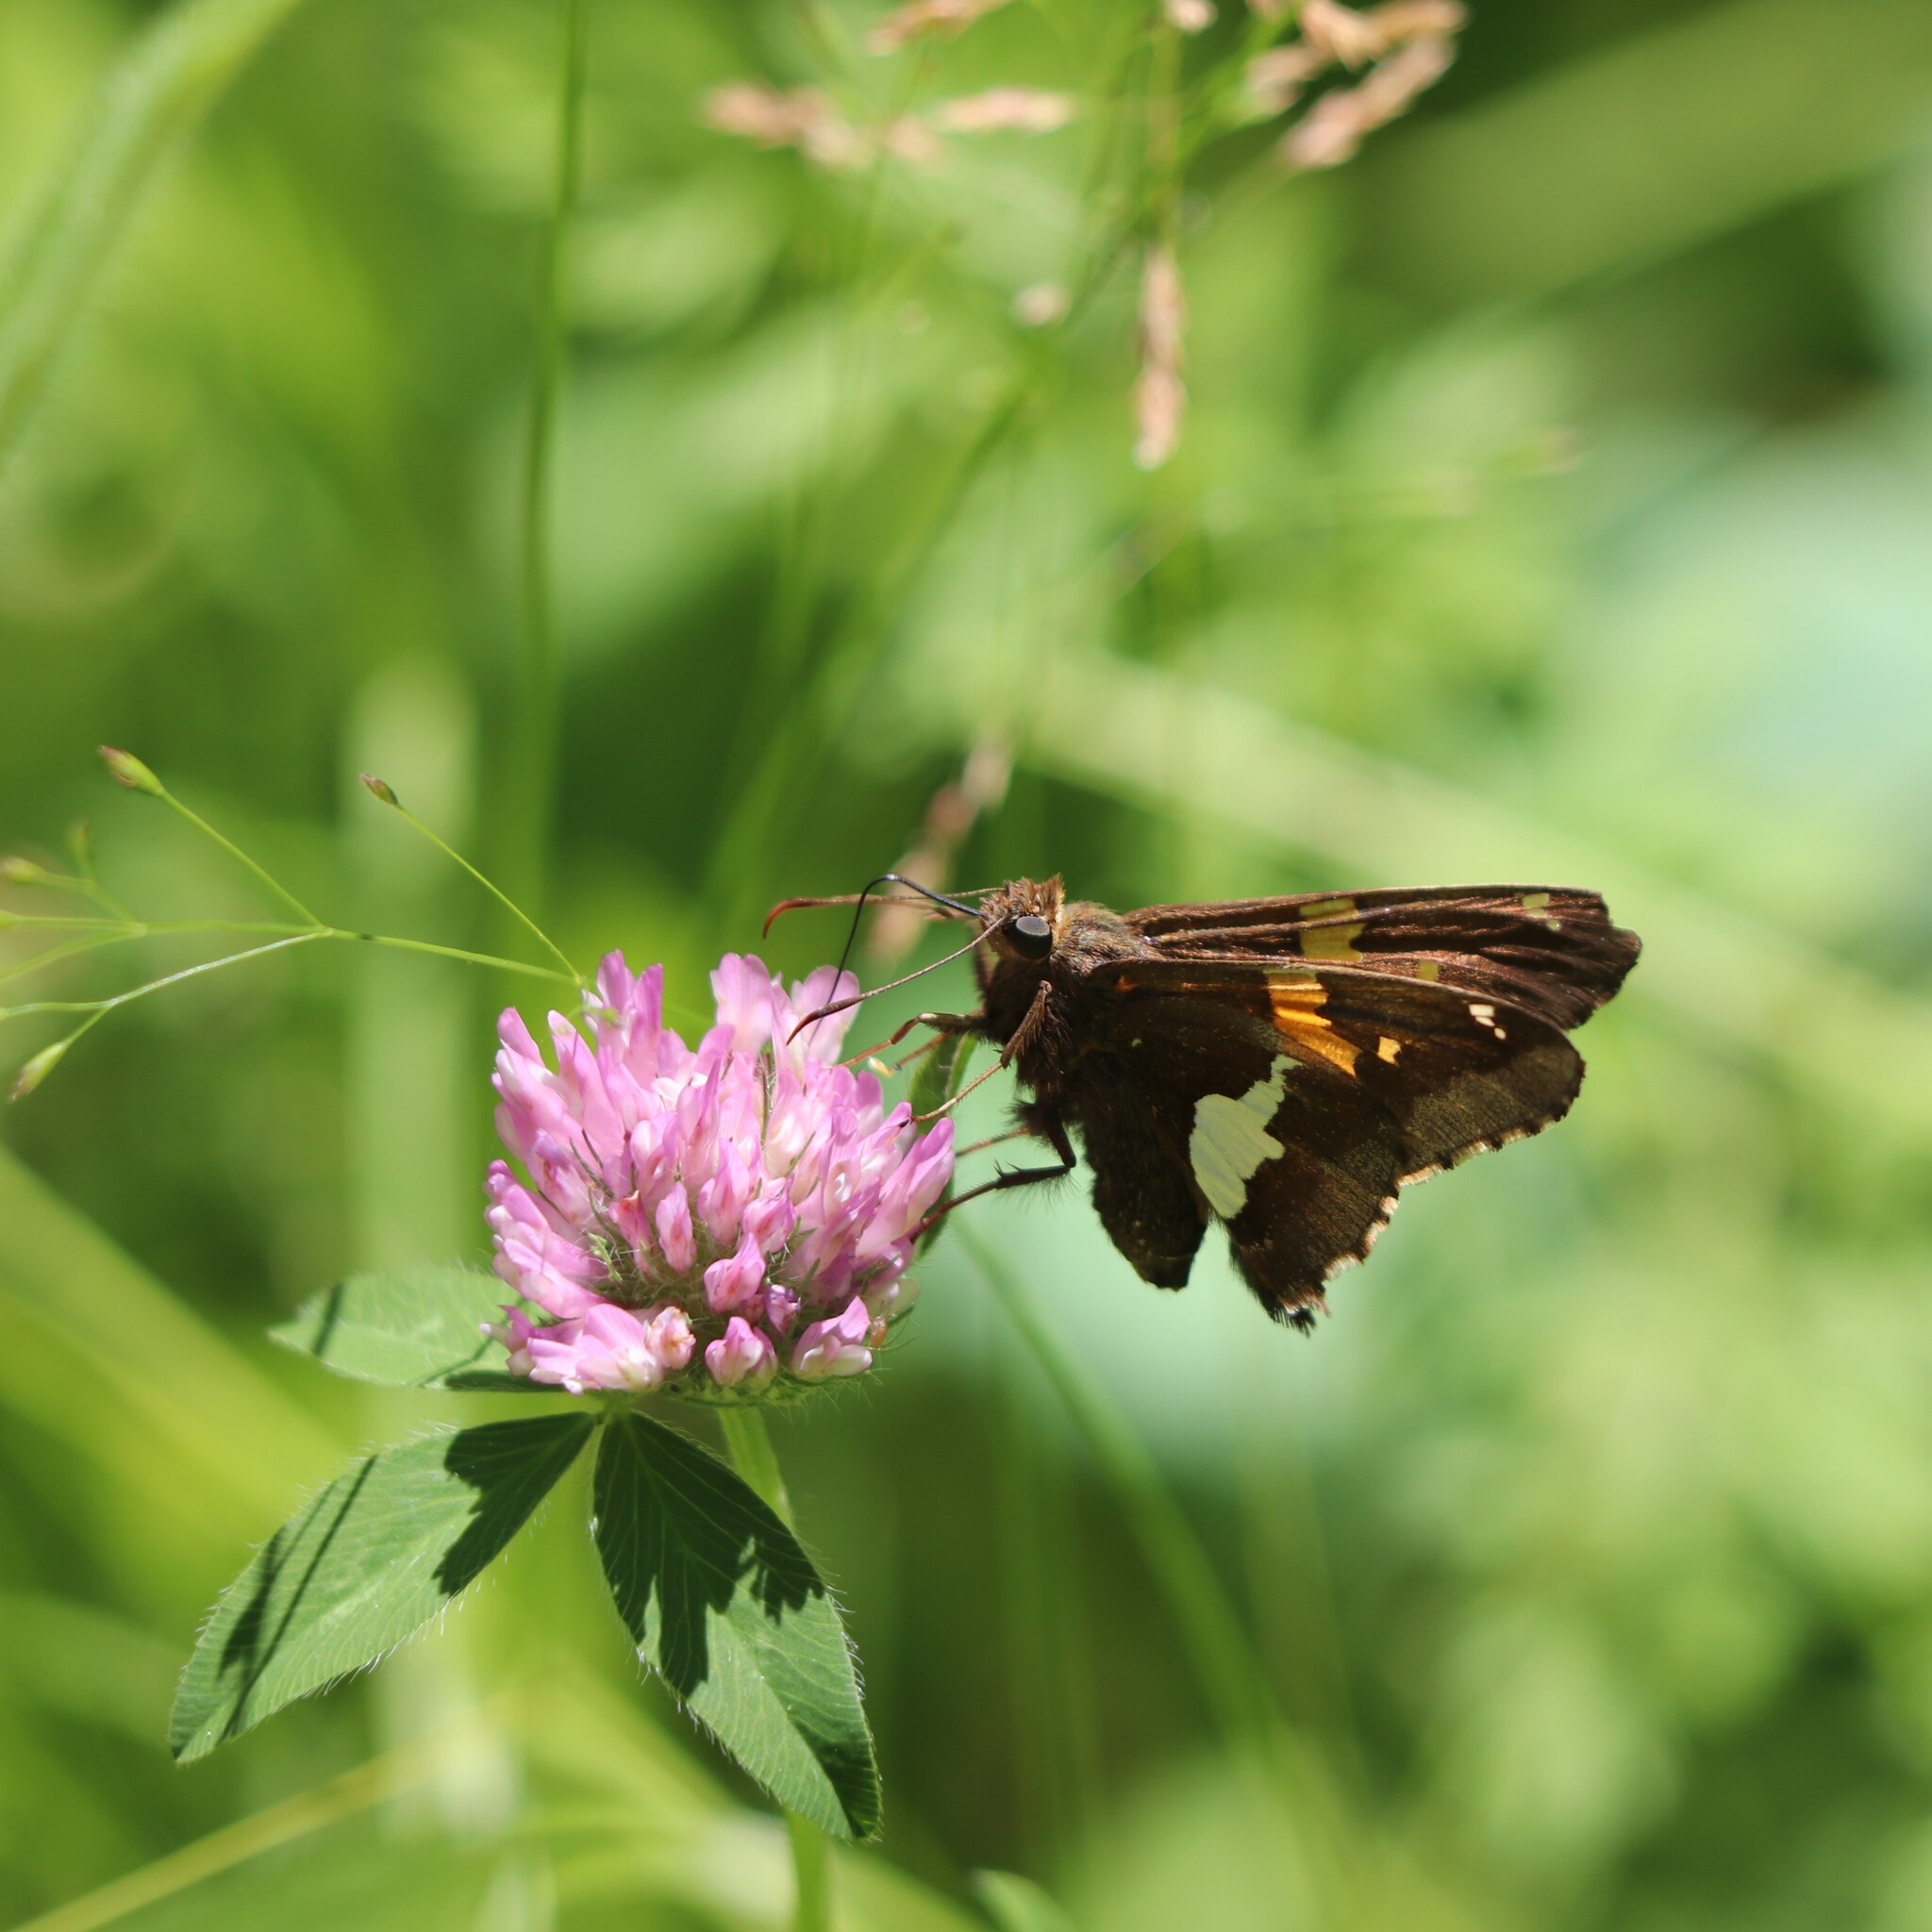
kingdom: Animalia
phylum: Arthropoda
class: Insecta
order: Lepidoptera
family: Hesperiidae
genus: Epargyreus
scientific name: Epargyreus clarus
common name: Silver-spotted skipper
